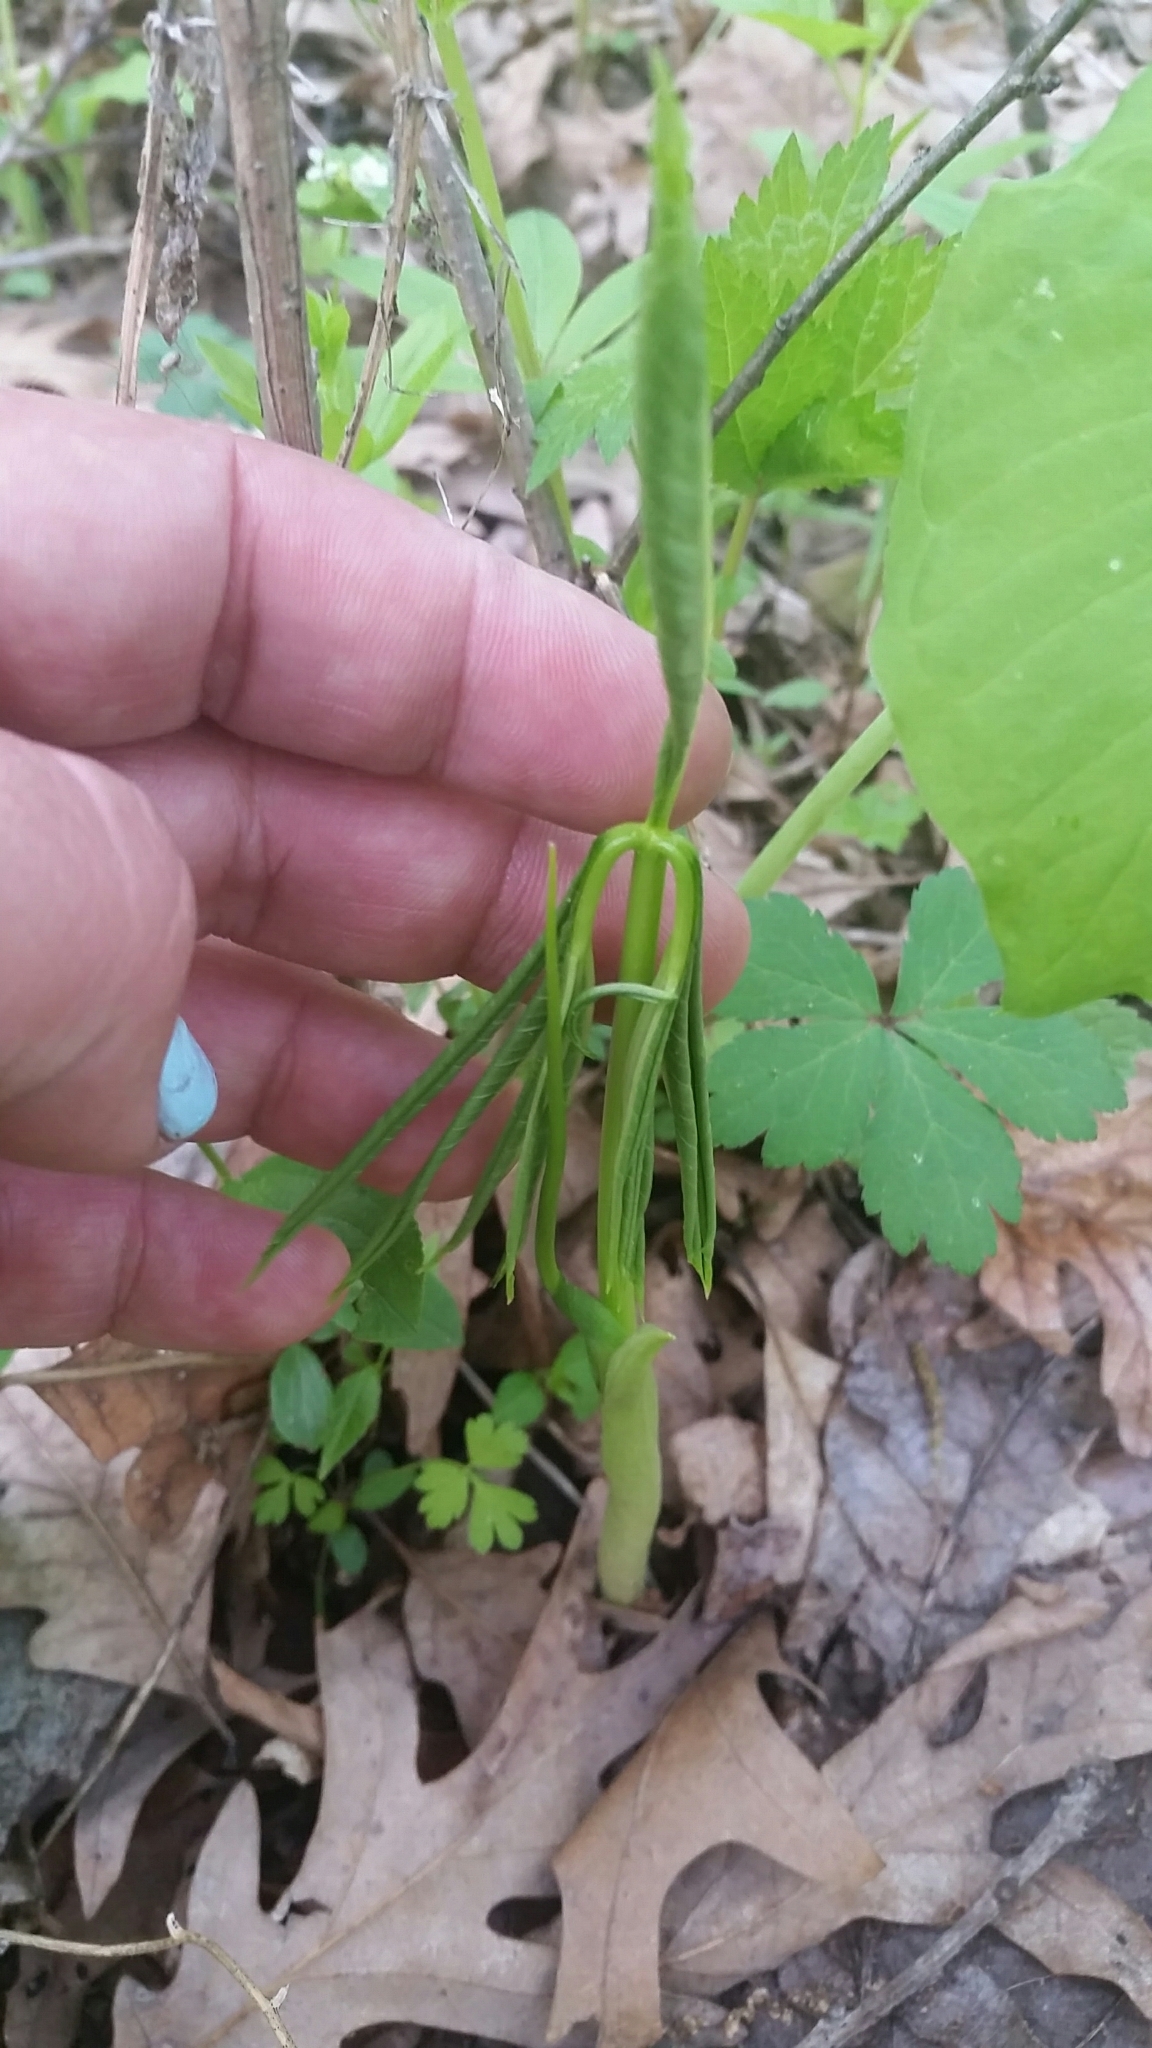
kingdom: Plantae
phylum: Tracheophyta
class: Liliopsida
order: Alismatales
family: Araceae
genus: Arisaema
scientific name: Arisaema dracontium
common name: Dragon-arum
